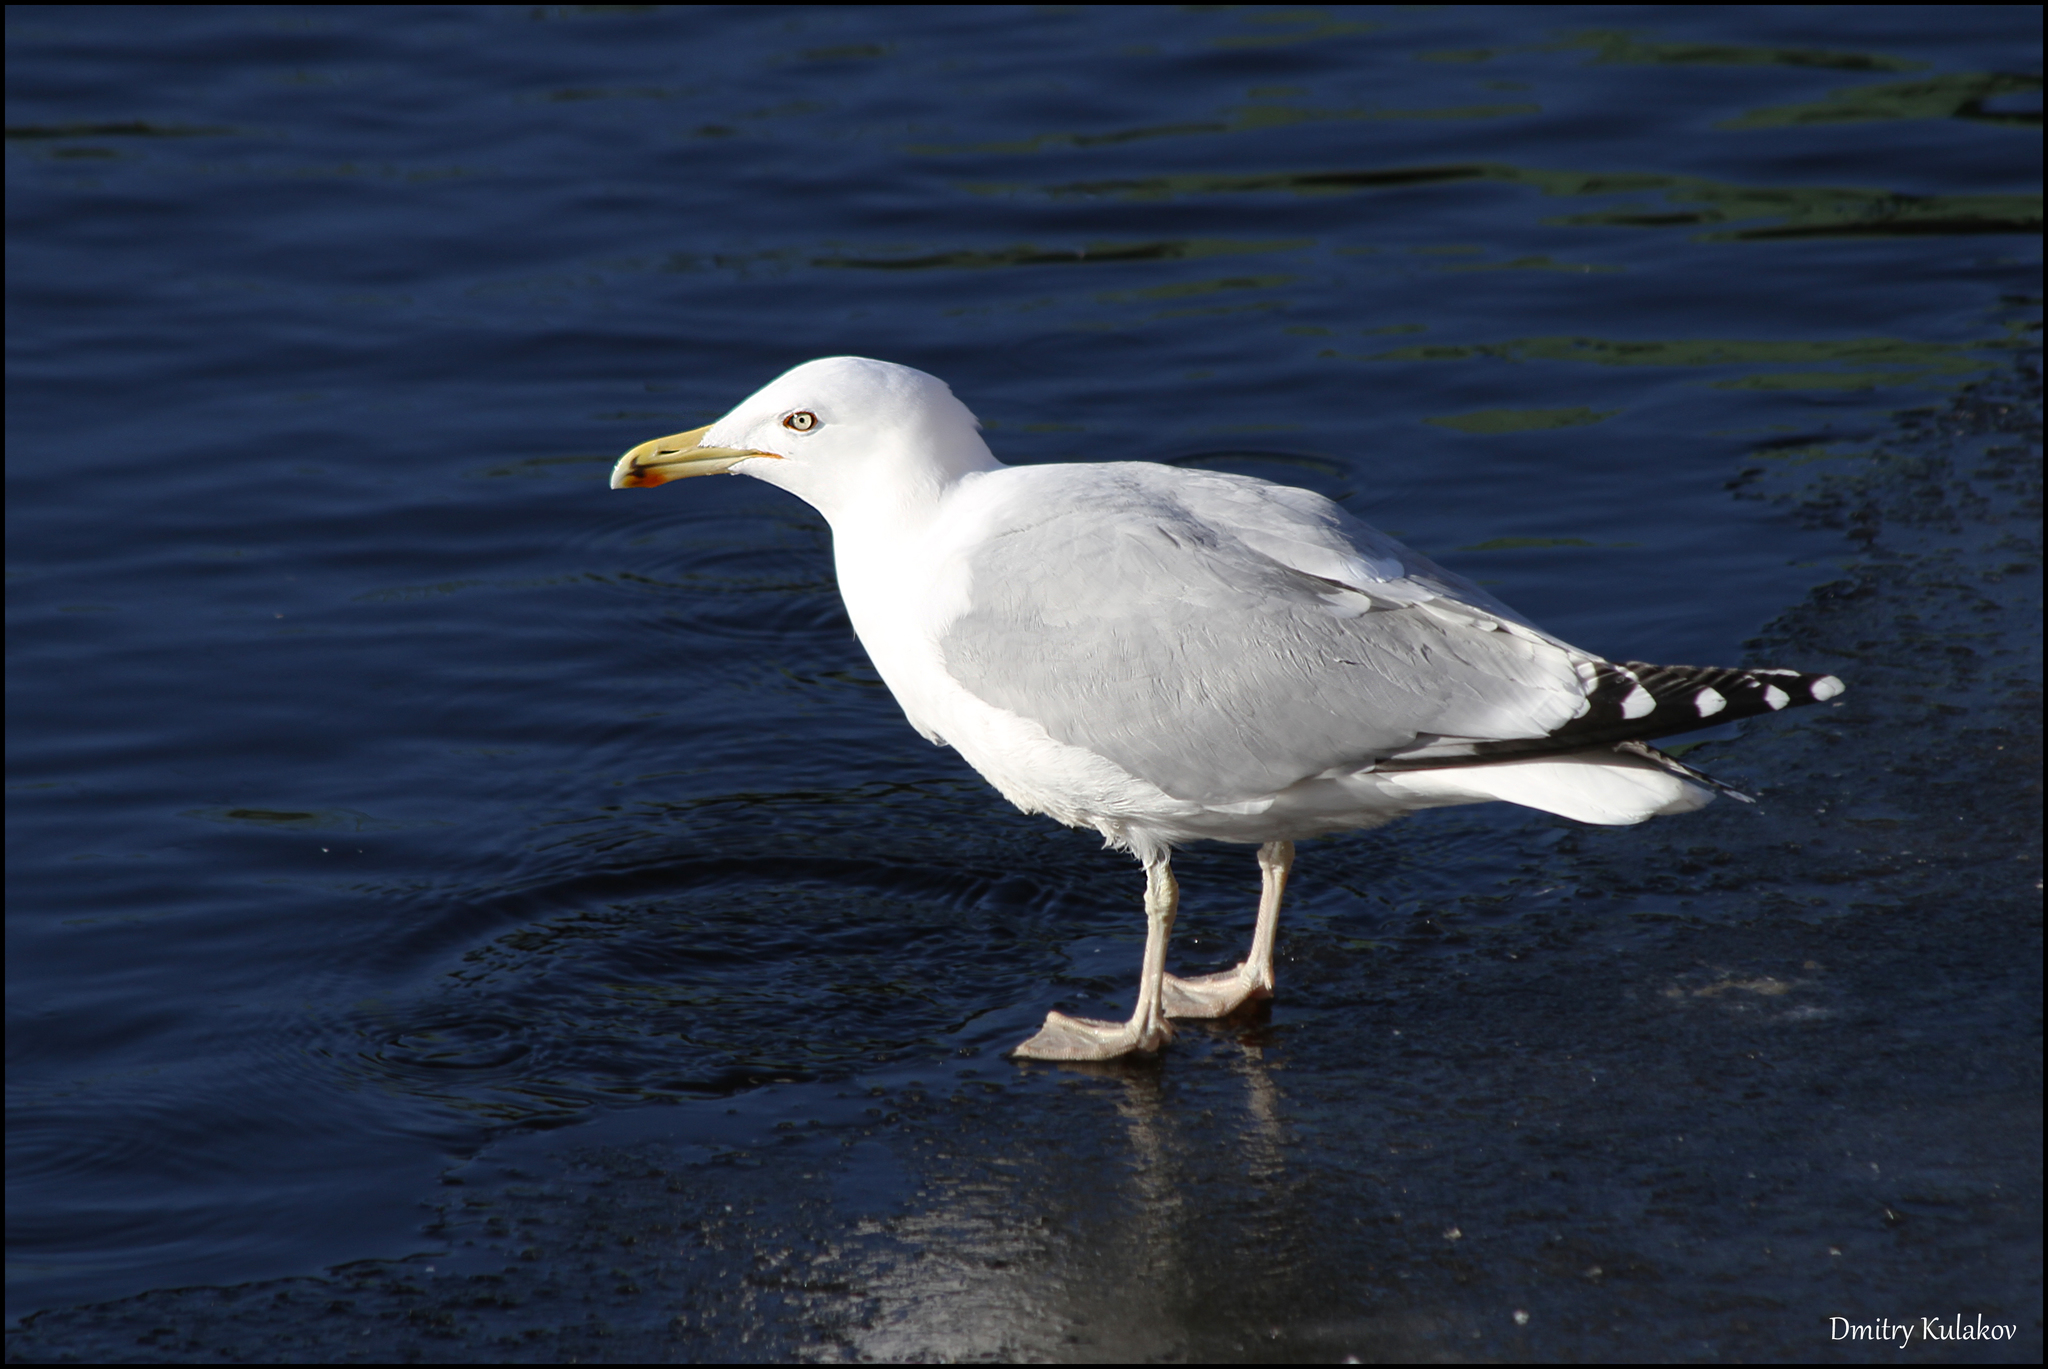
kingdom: Animalia
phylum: Chordata
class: Aves
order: Charadriiformes
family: Laridae
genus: Larus
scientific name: Larus argentatus
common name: Herring gull
